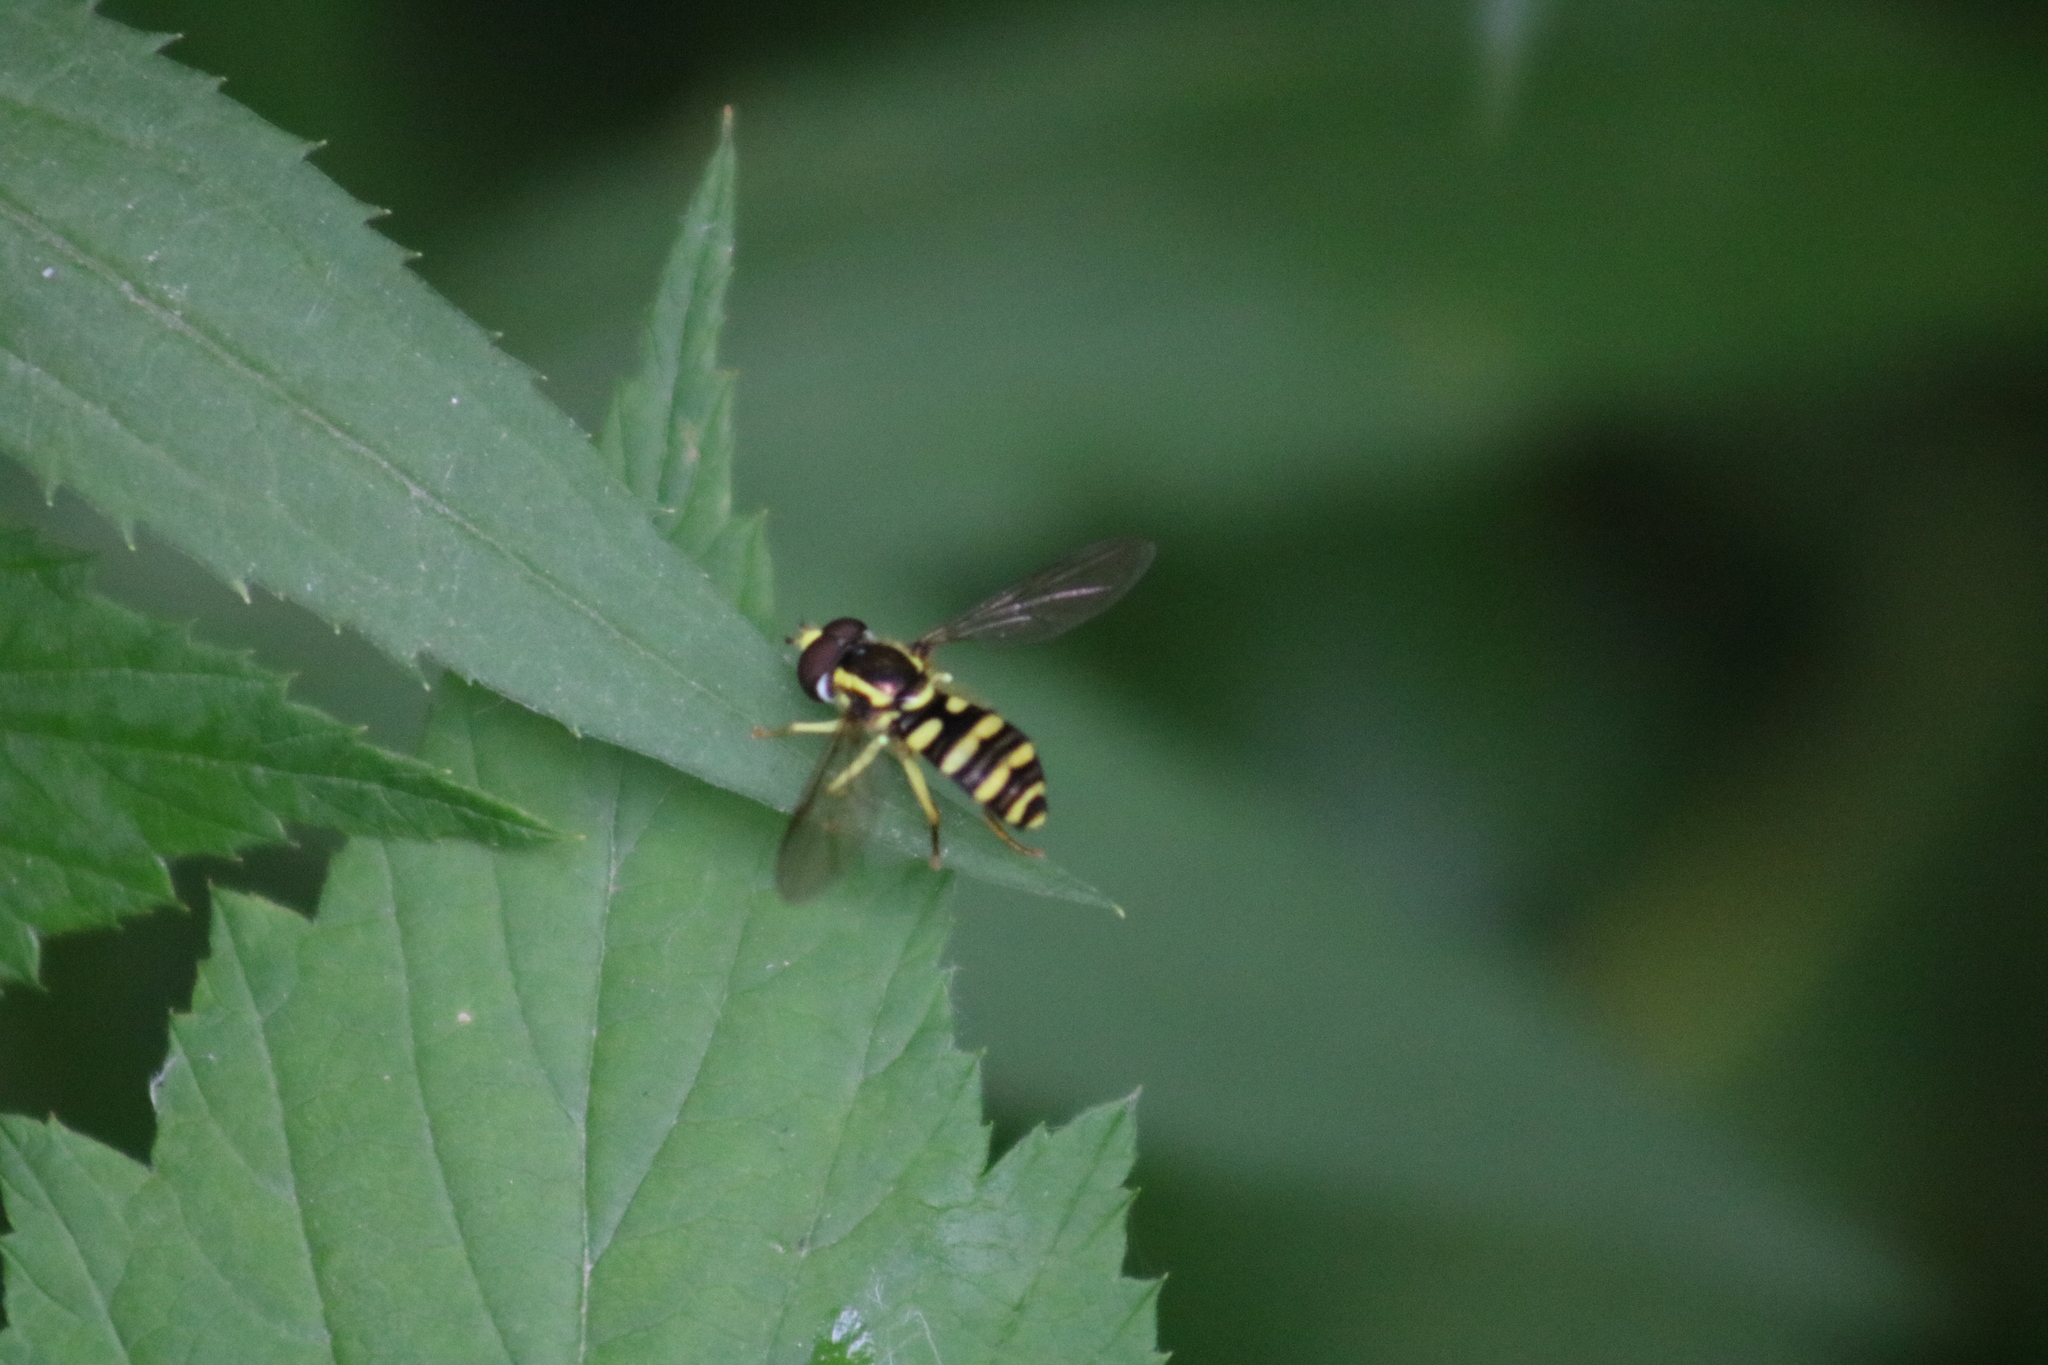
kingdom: Animalia
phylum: Arthropoda
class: Insecta
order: Diptera
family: Syrphidae
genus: Philhelius
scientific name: Philhelius flavipes
